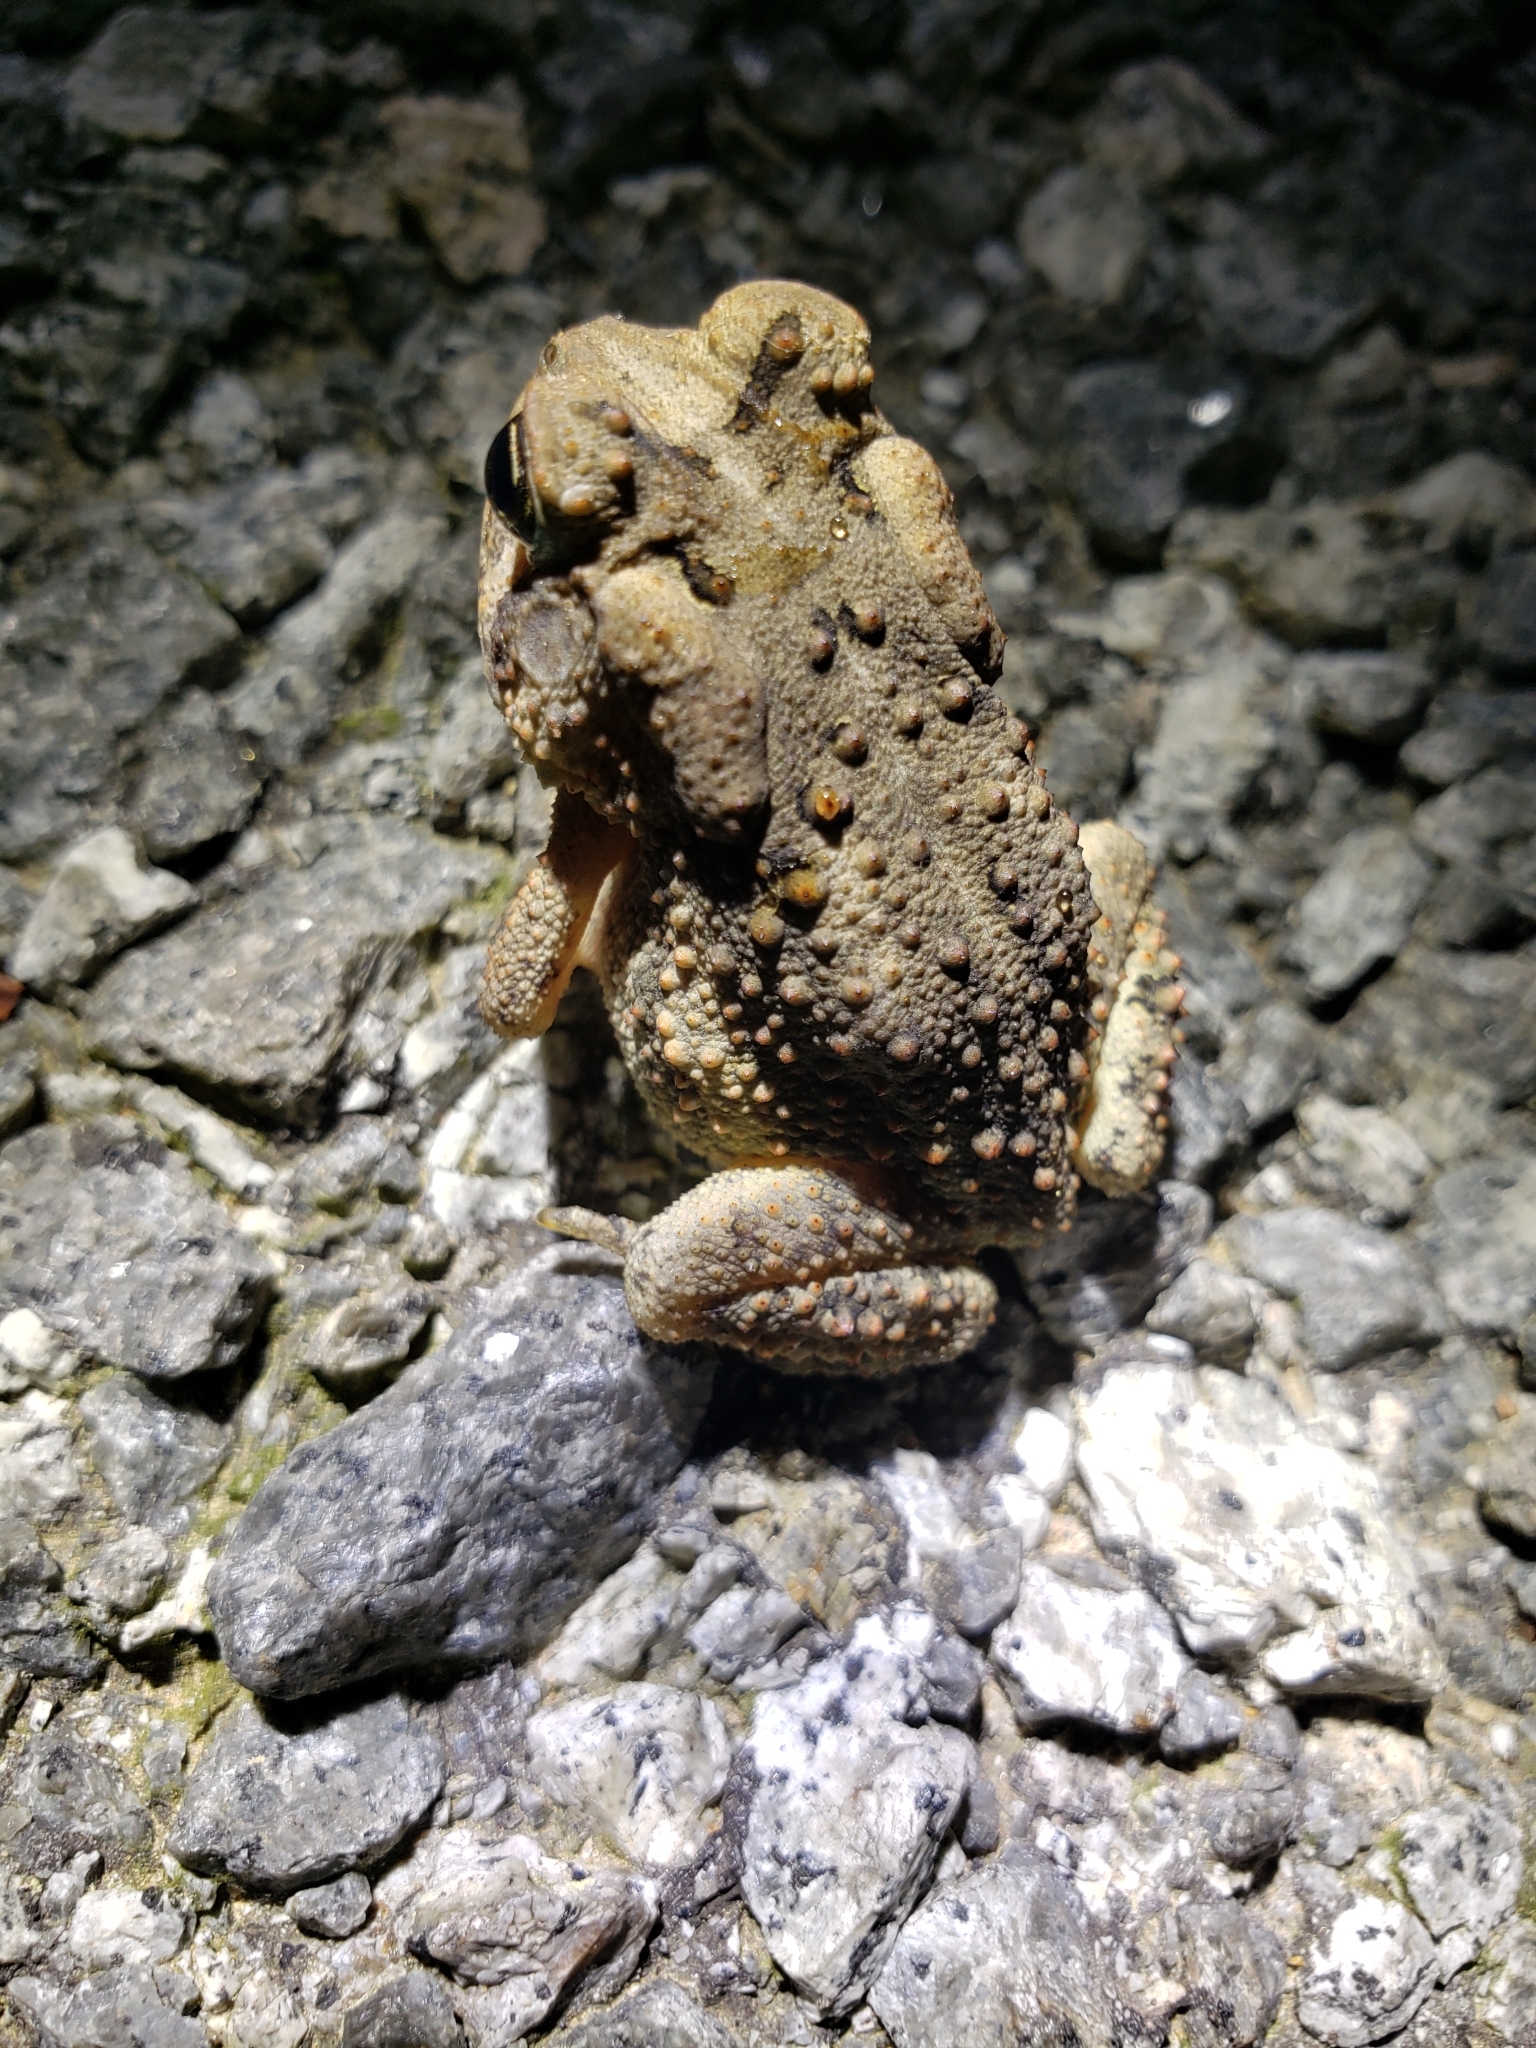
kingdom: Animalia
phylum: Chordata
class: Amphibia
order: Anura
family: Bufonidae
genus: Anaxyrus
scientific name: Anaxyrus americanus
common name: American toad
